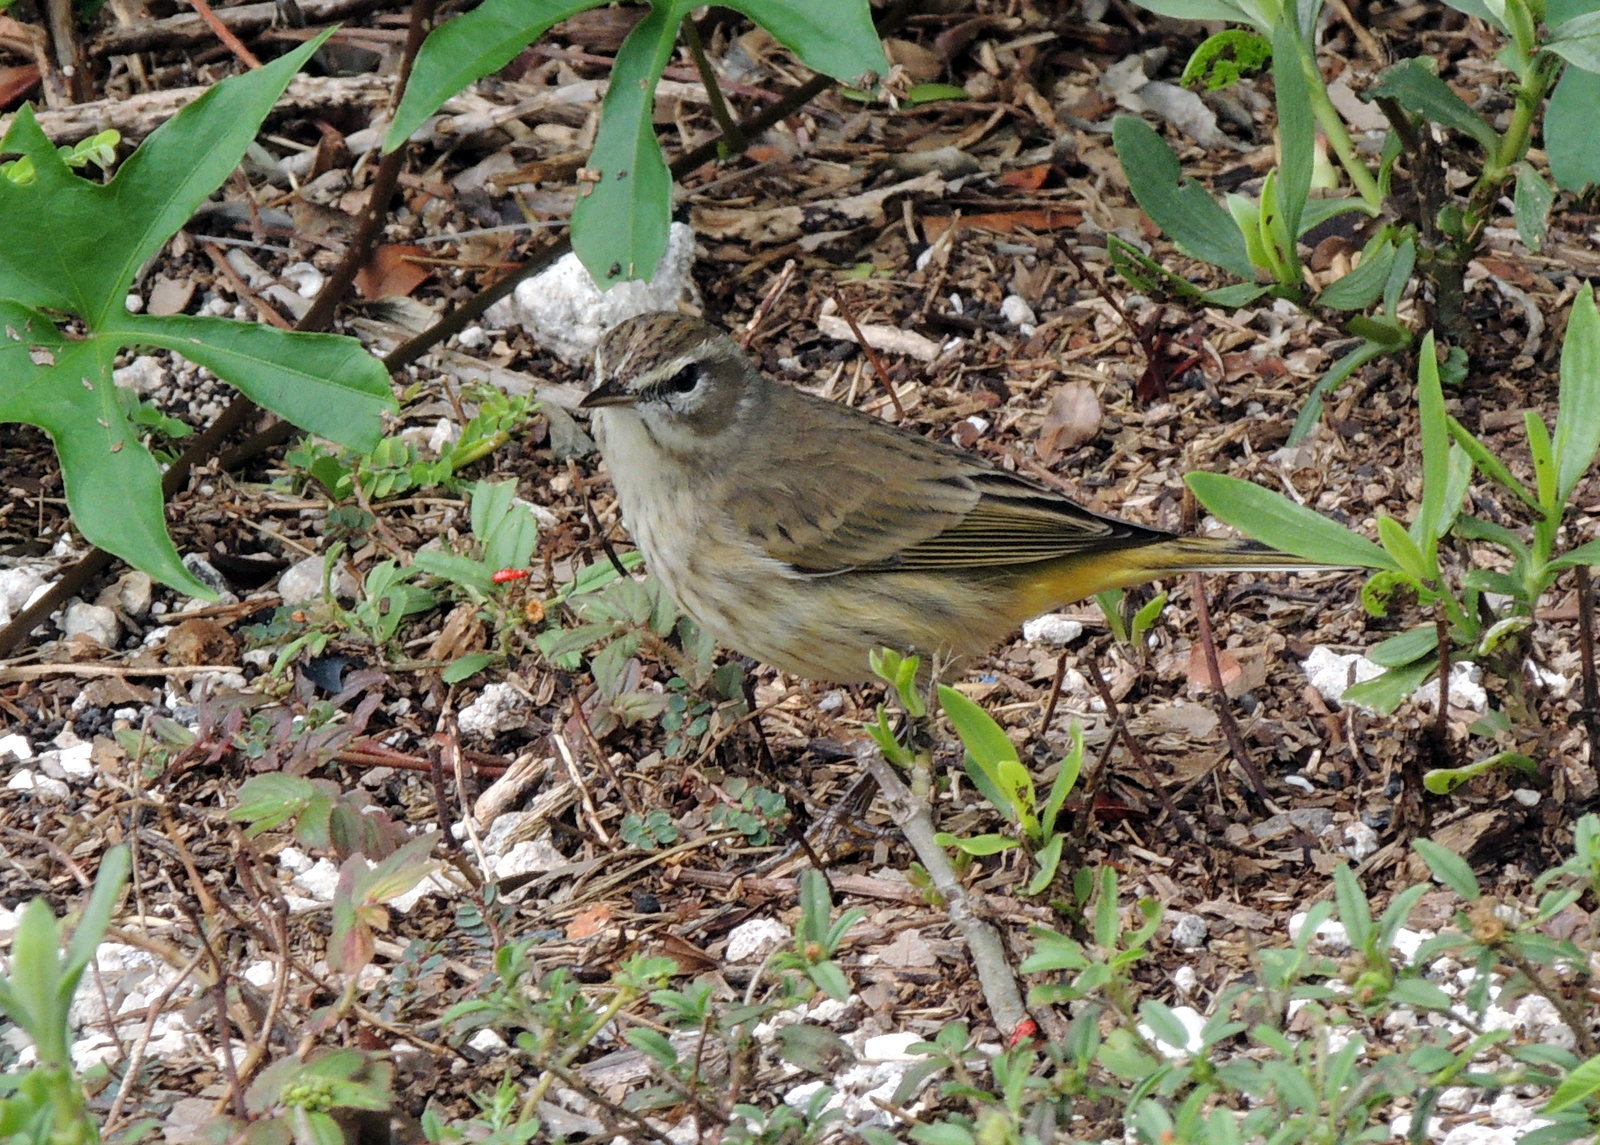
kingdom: Animalia
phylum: Chordata
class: Aves
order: Passeriformes
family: Parulidae
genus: Setophaga
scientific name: Setophaga palmarum
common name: Palm warbler
